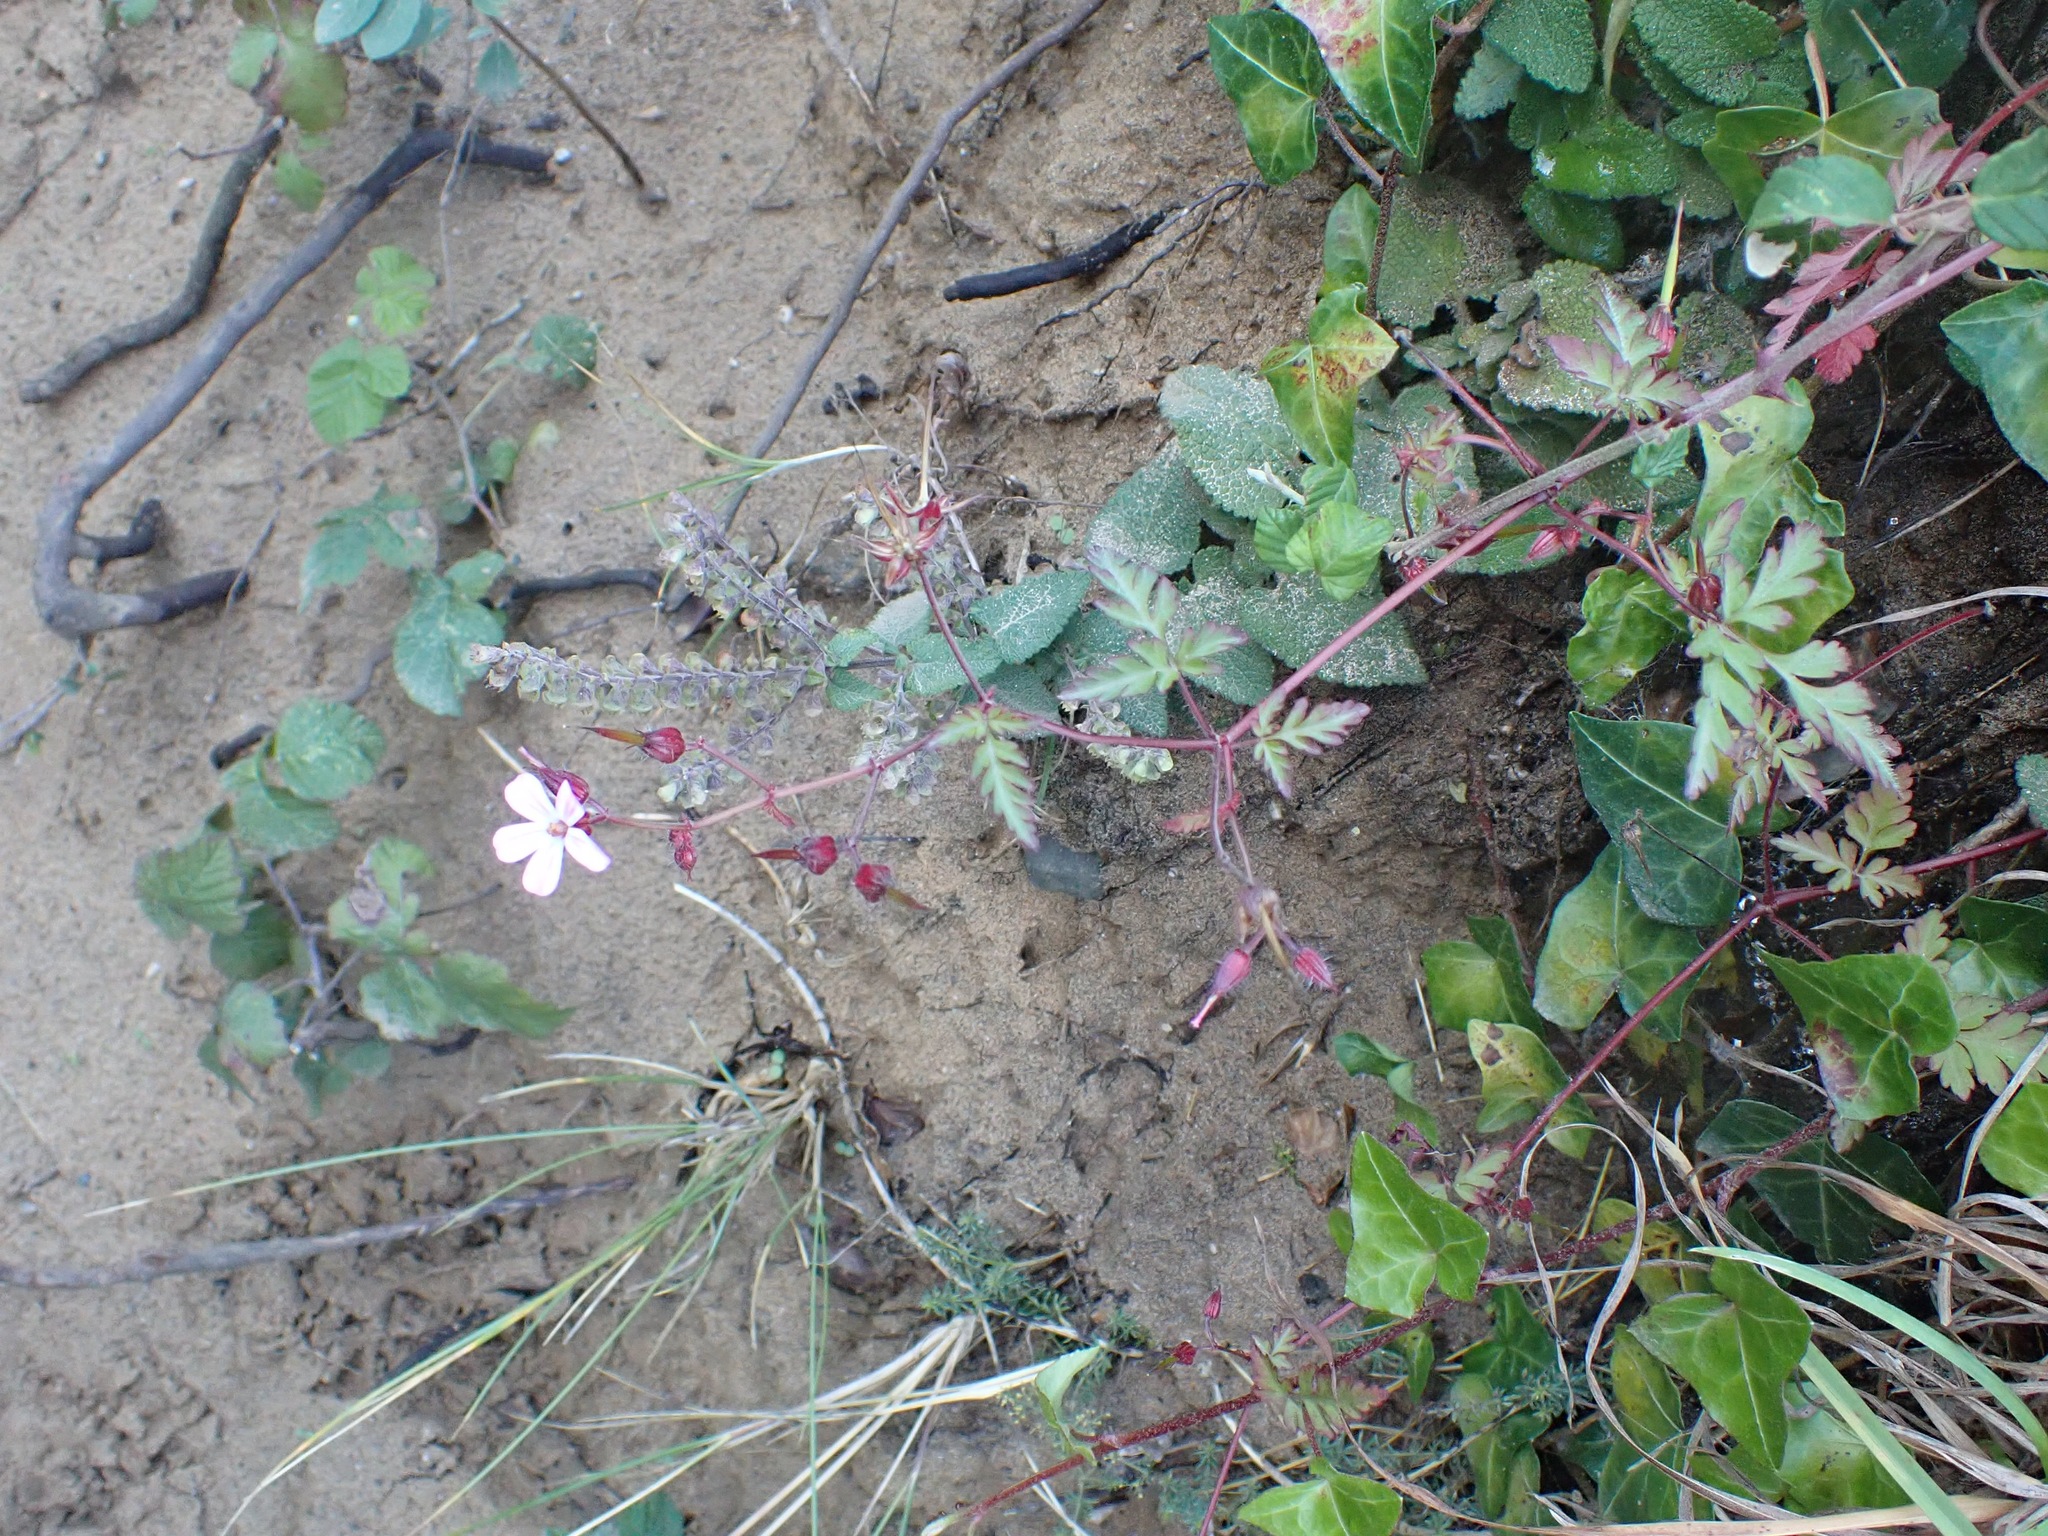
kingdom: Plantae
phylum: Tracheophyta
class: Magnoliopsida
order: Geraniales
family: Geraniaceae
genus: Geranium
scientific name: Geranium robertianum
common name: Herb-robert
